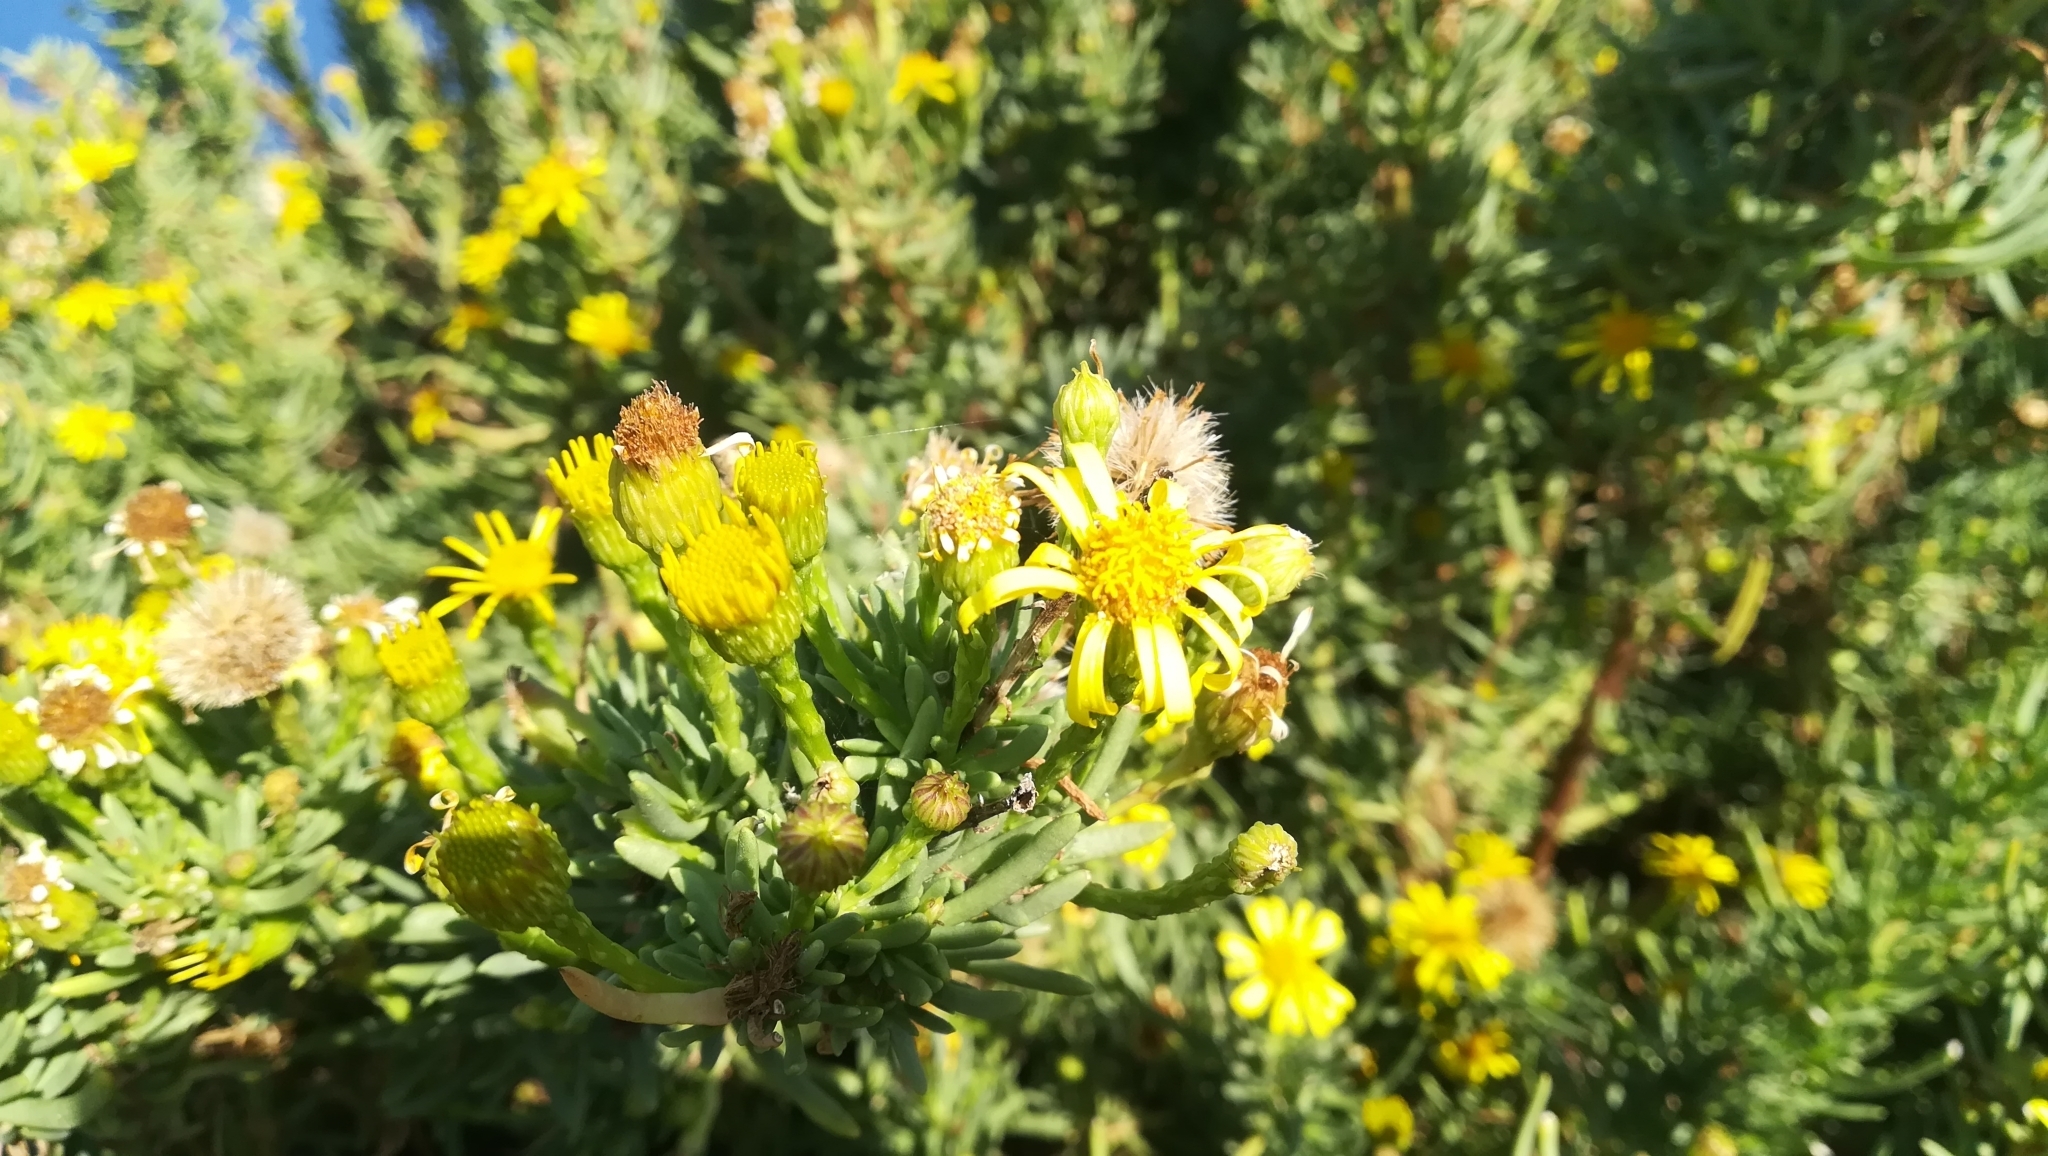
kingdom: Plantae
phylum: Tracheophyta
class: Magnoliopsida
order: Asterales
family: Asteraceae
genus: Limbarda
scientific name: Limbarda crithmoides
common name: Golden samphire
